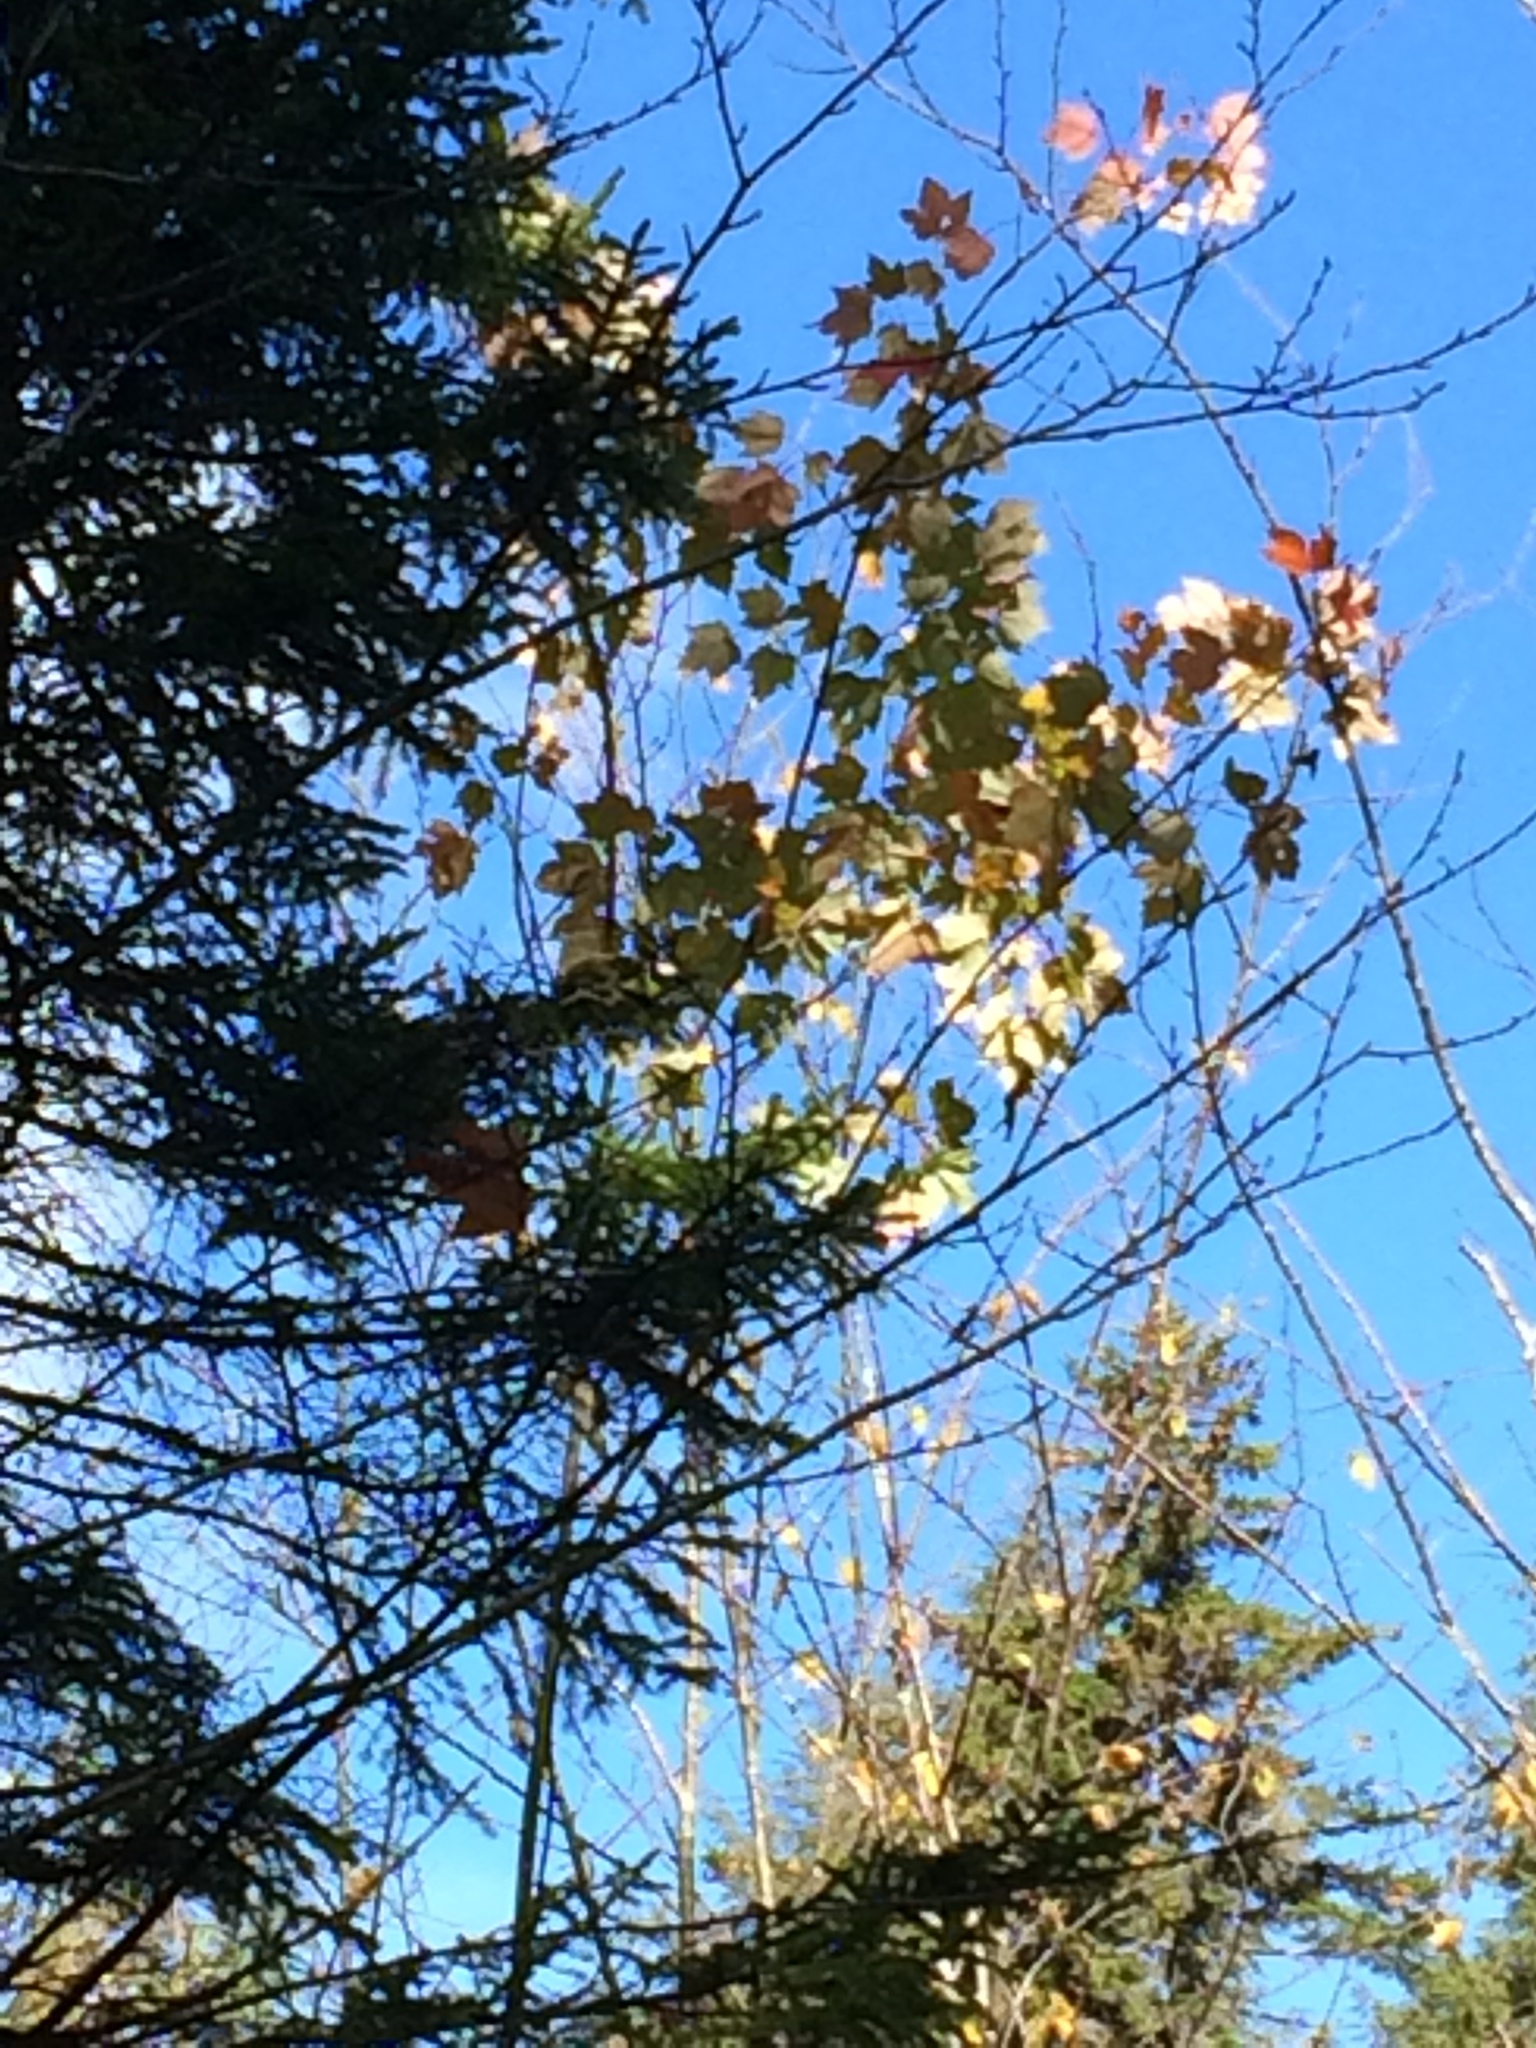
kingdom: Plantae
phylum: Tracheophyta
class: Magnoliopsida
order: Sapindales
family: Sapindaceae
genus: Acer
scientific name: Acer rubrum
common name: Red maple
